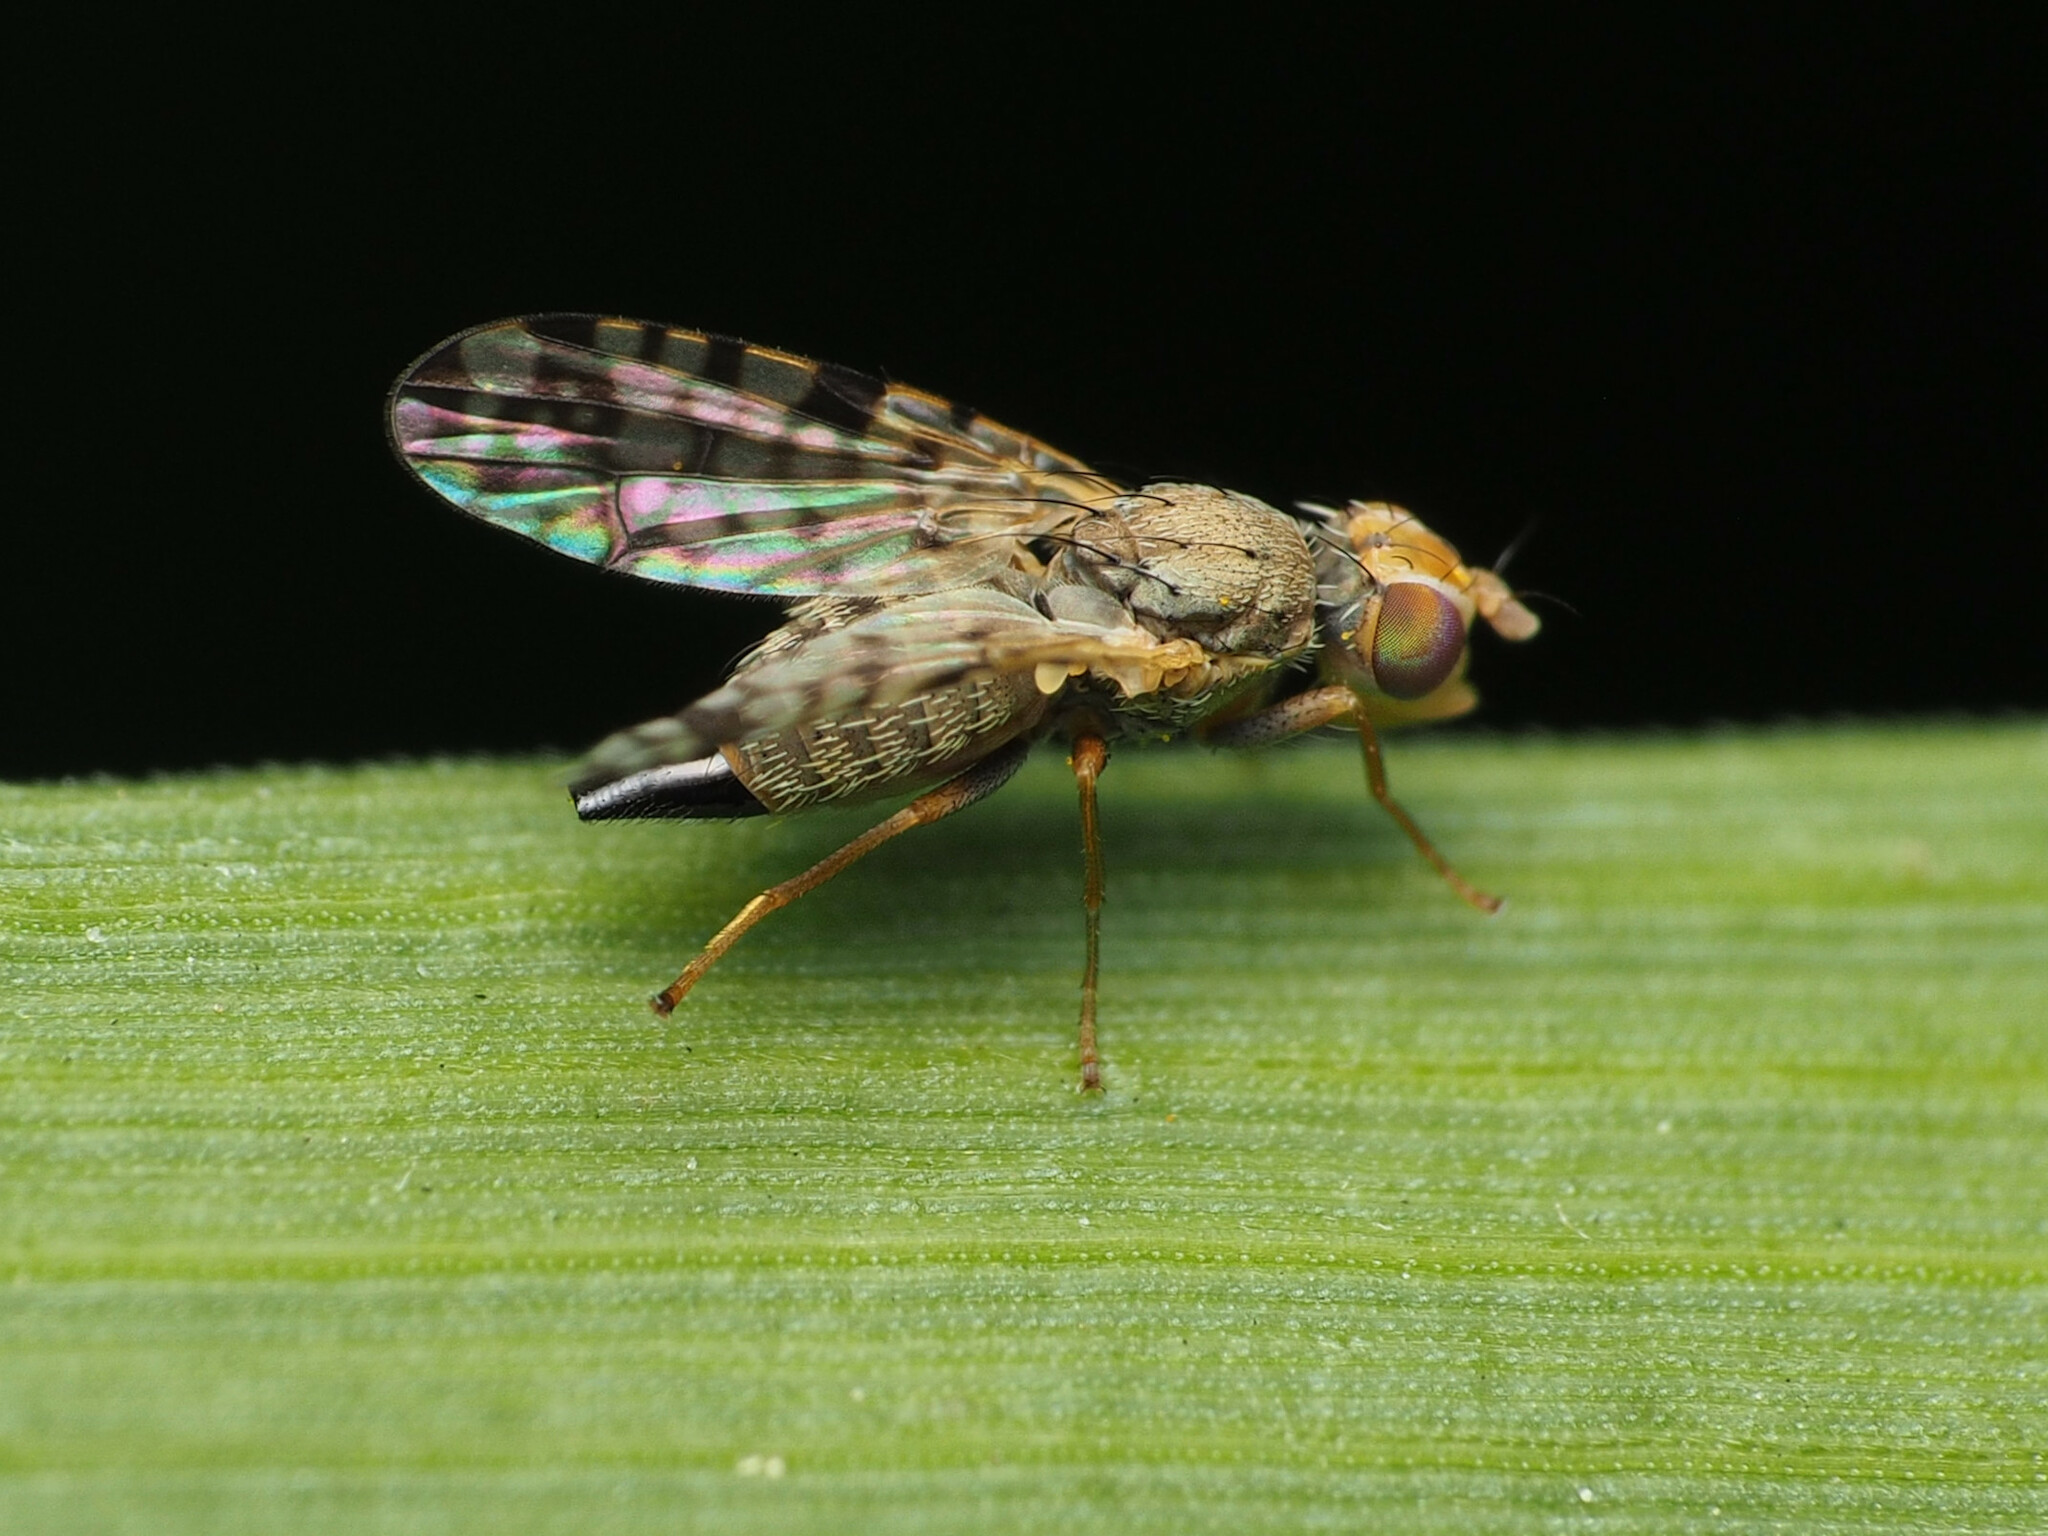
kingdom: Animalia
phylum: Arthropoda
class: Insecta
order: Diptera
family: Tephritidae
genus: Dioxyna
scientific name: Dioxyna picciola
